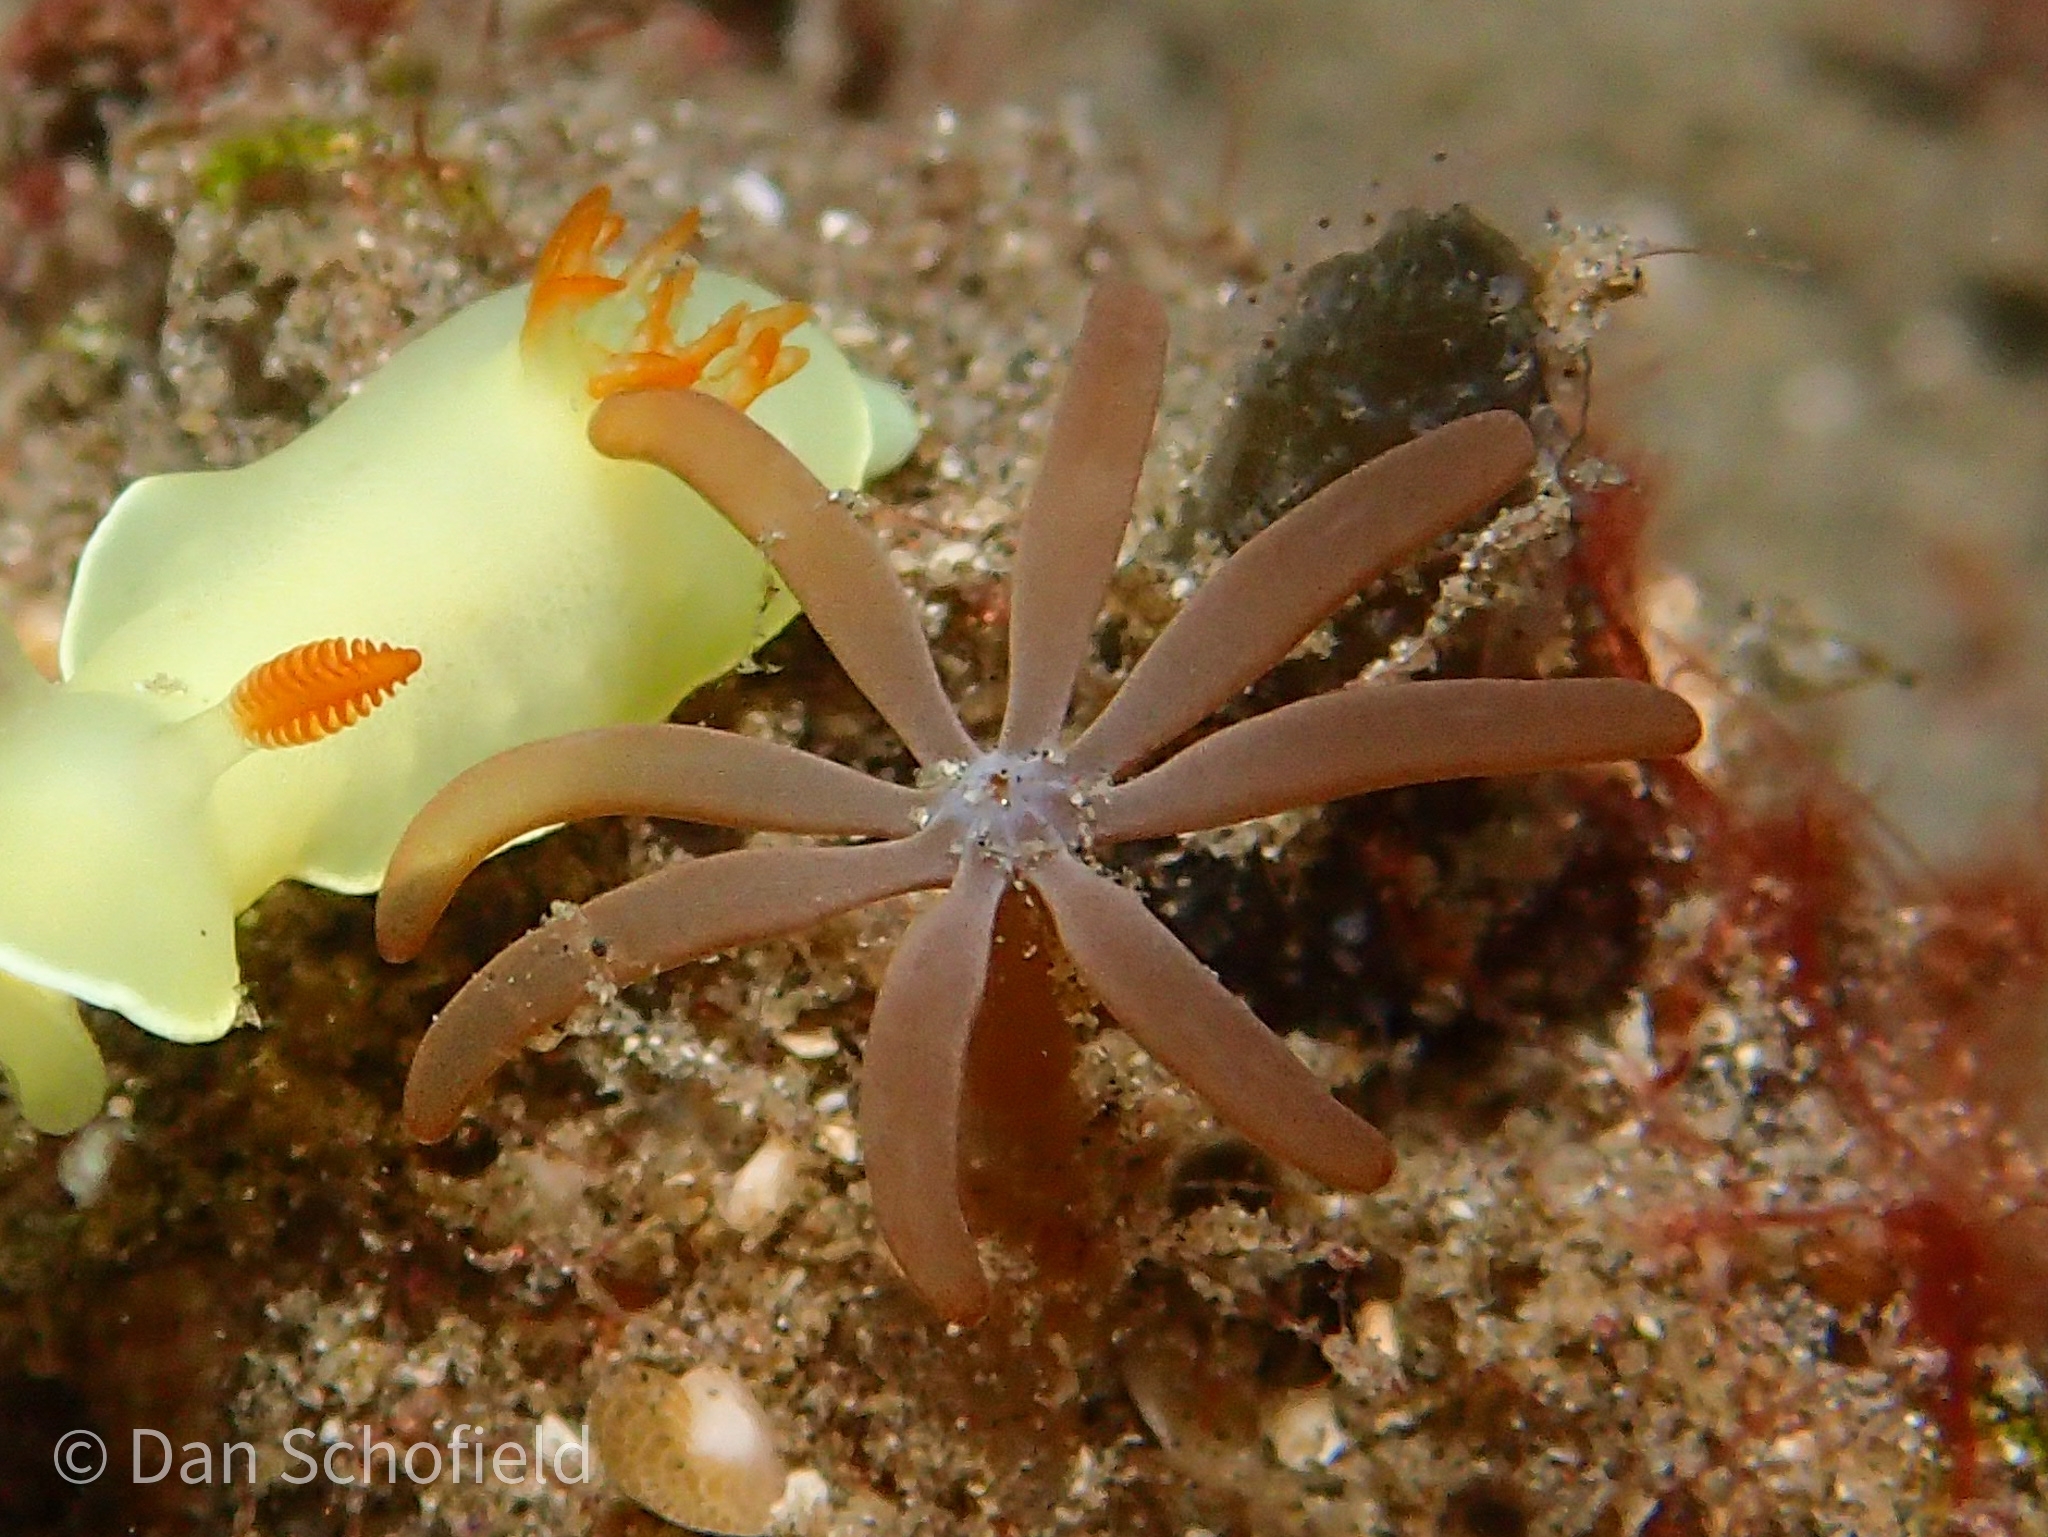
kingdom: Animalia
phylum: Cnidaria
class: Anthozoa
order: Malacalcyonacea
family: Acrossotidae
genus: Acrossota
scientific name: Acrossota amboinensis
